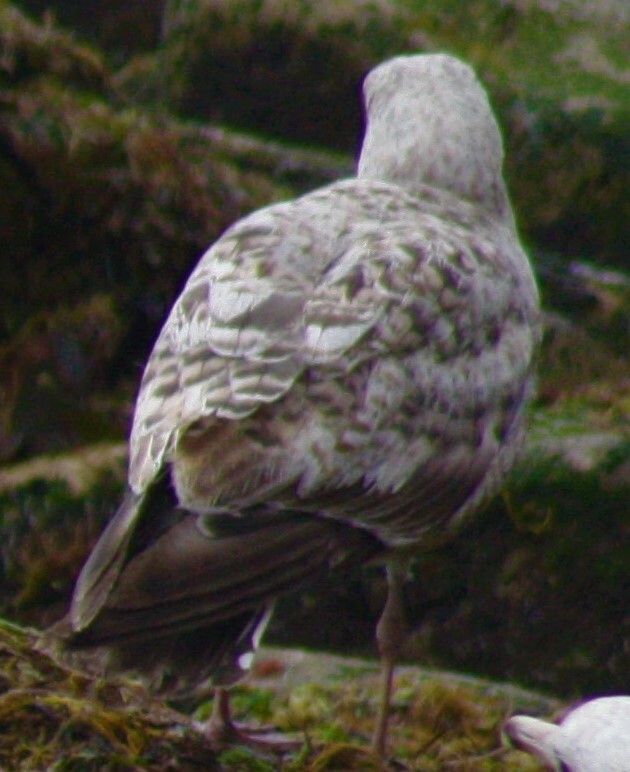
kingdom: Animalia
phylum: Chordata
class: Aves
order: Charadriiformes
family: Laridae
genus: Larus
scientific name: Larus argentatus
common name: Herring gull
